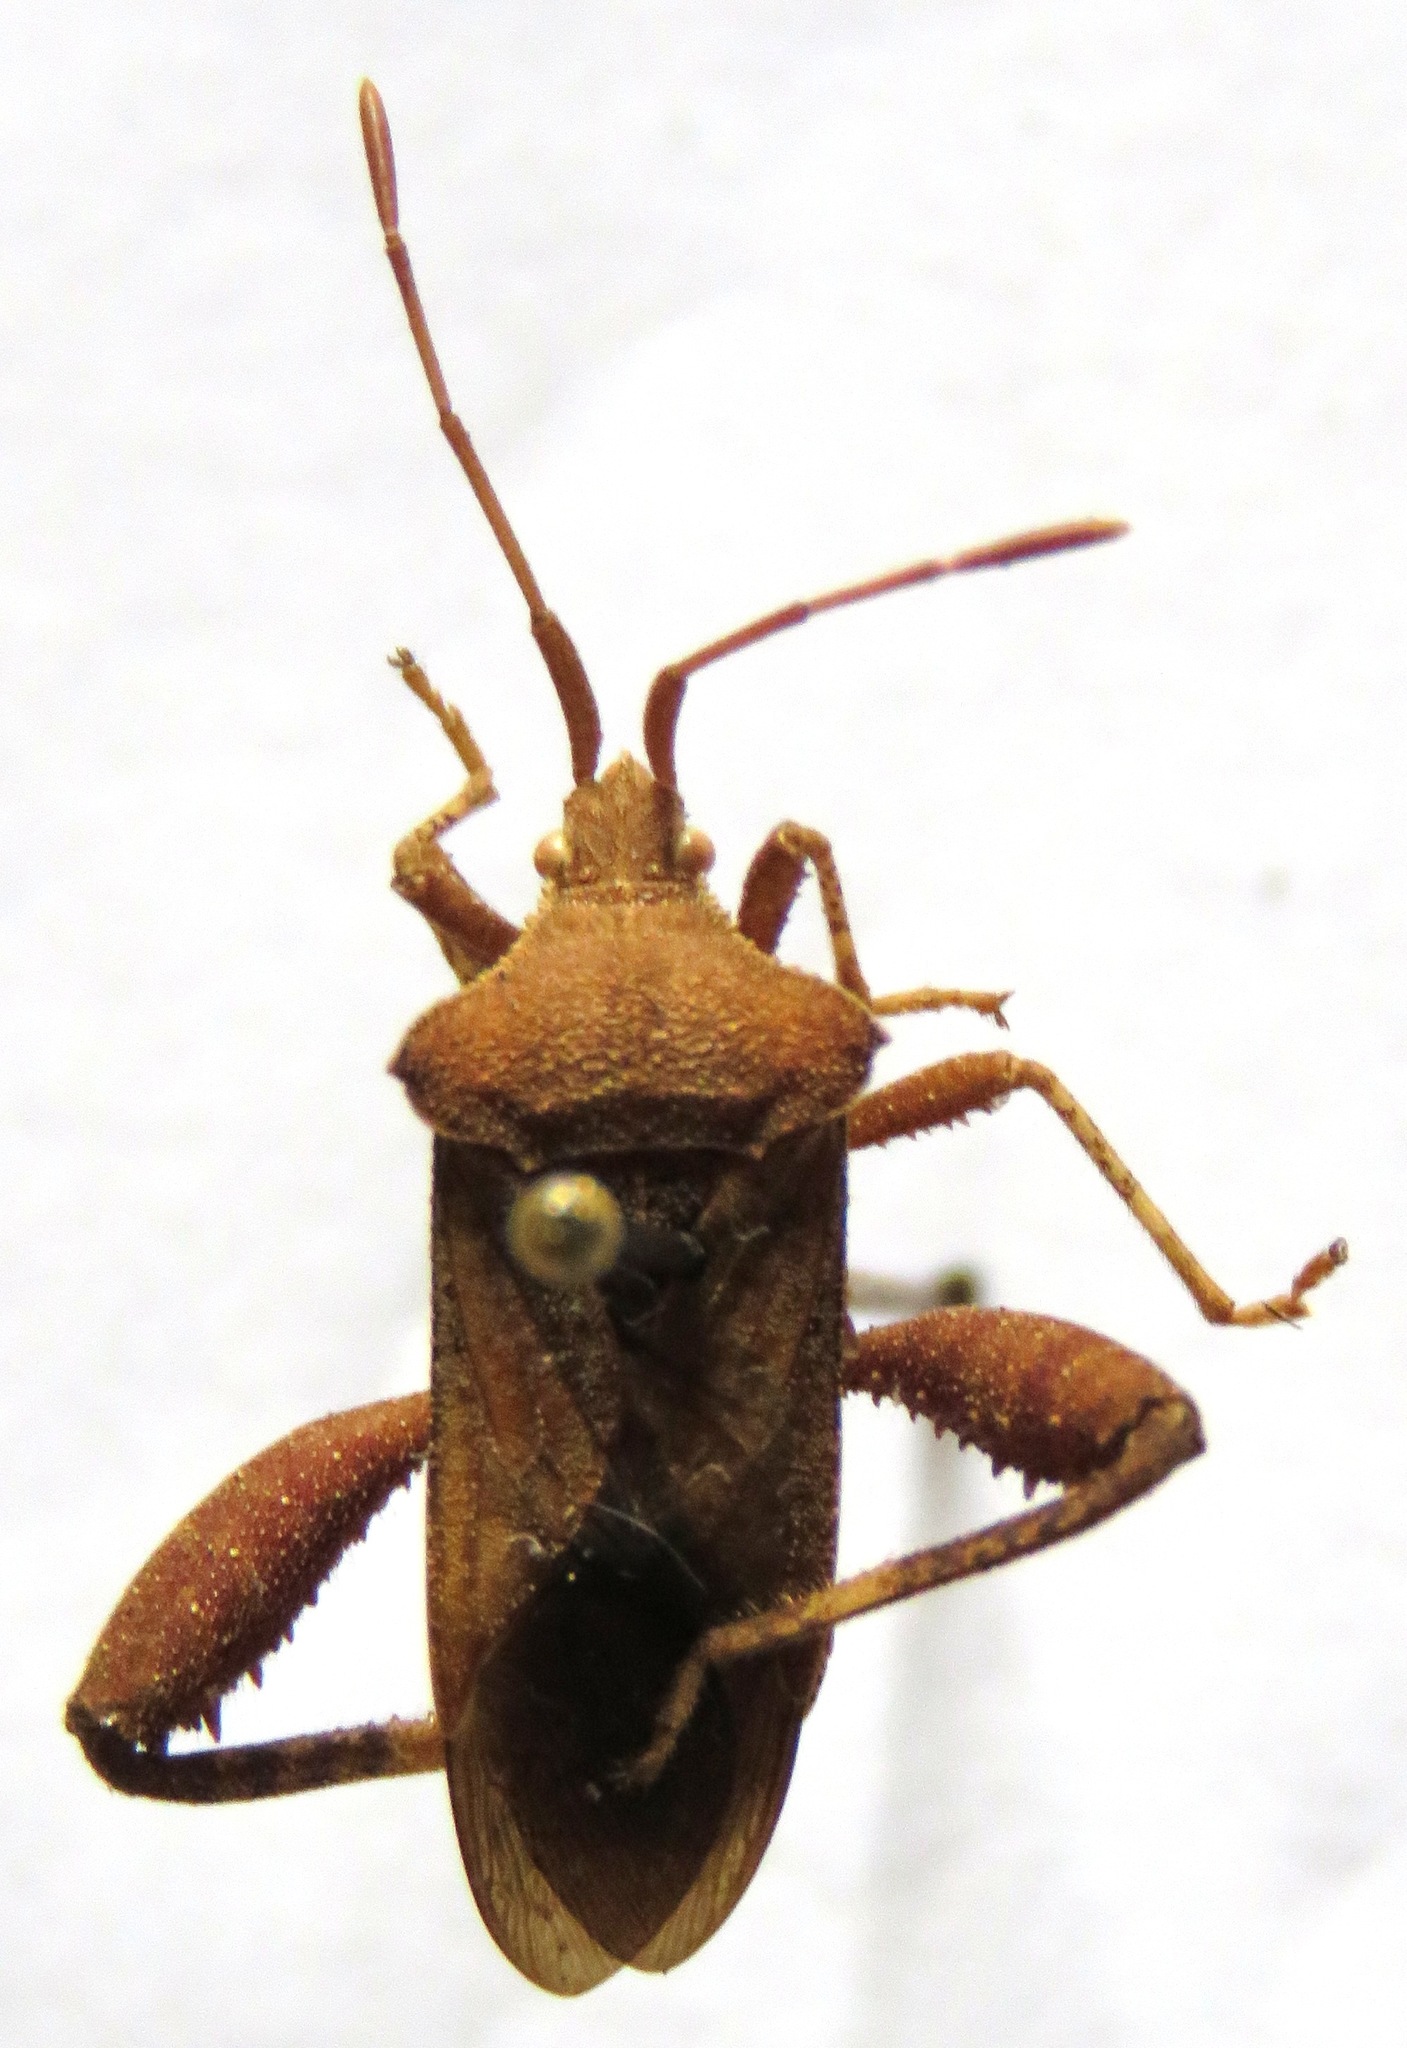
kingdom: Animalia
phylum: Arthropoda
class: Insecta
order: Hemiptera
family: Coreidae
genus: Mamurius
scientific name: Mamurius mopsus
